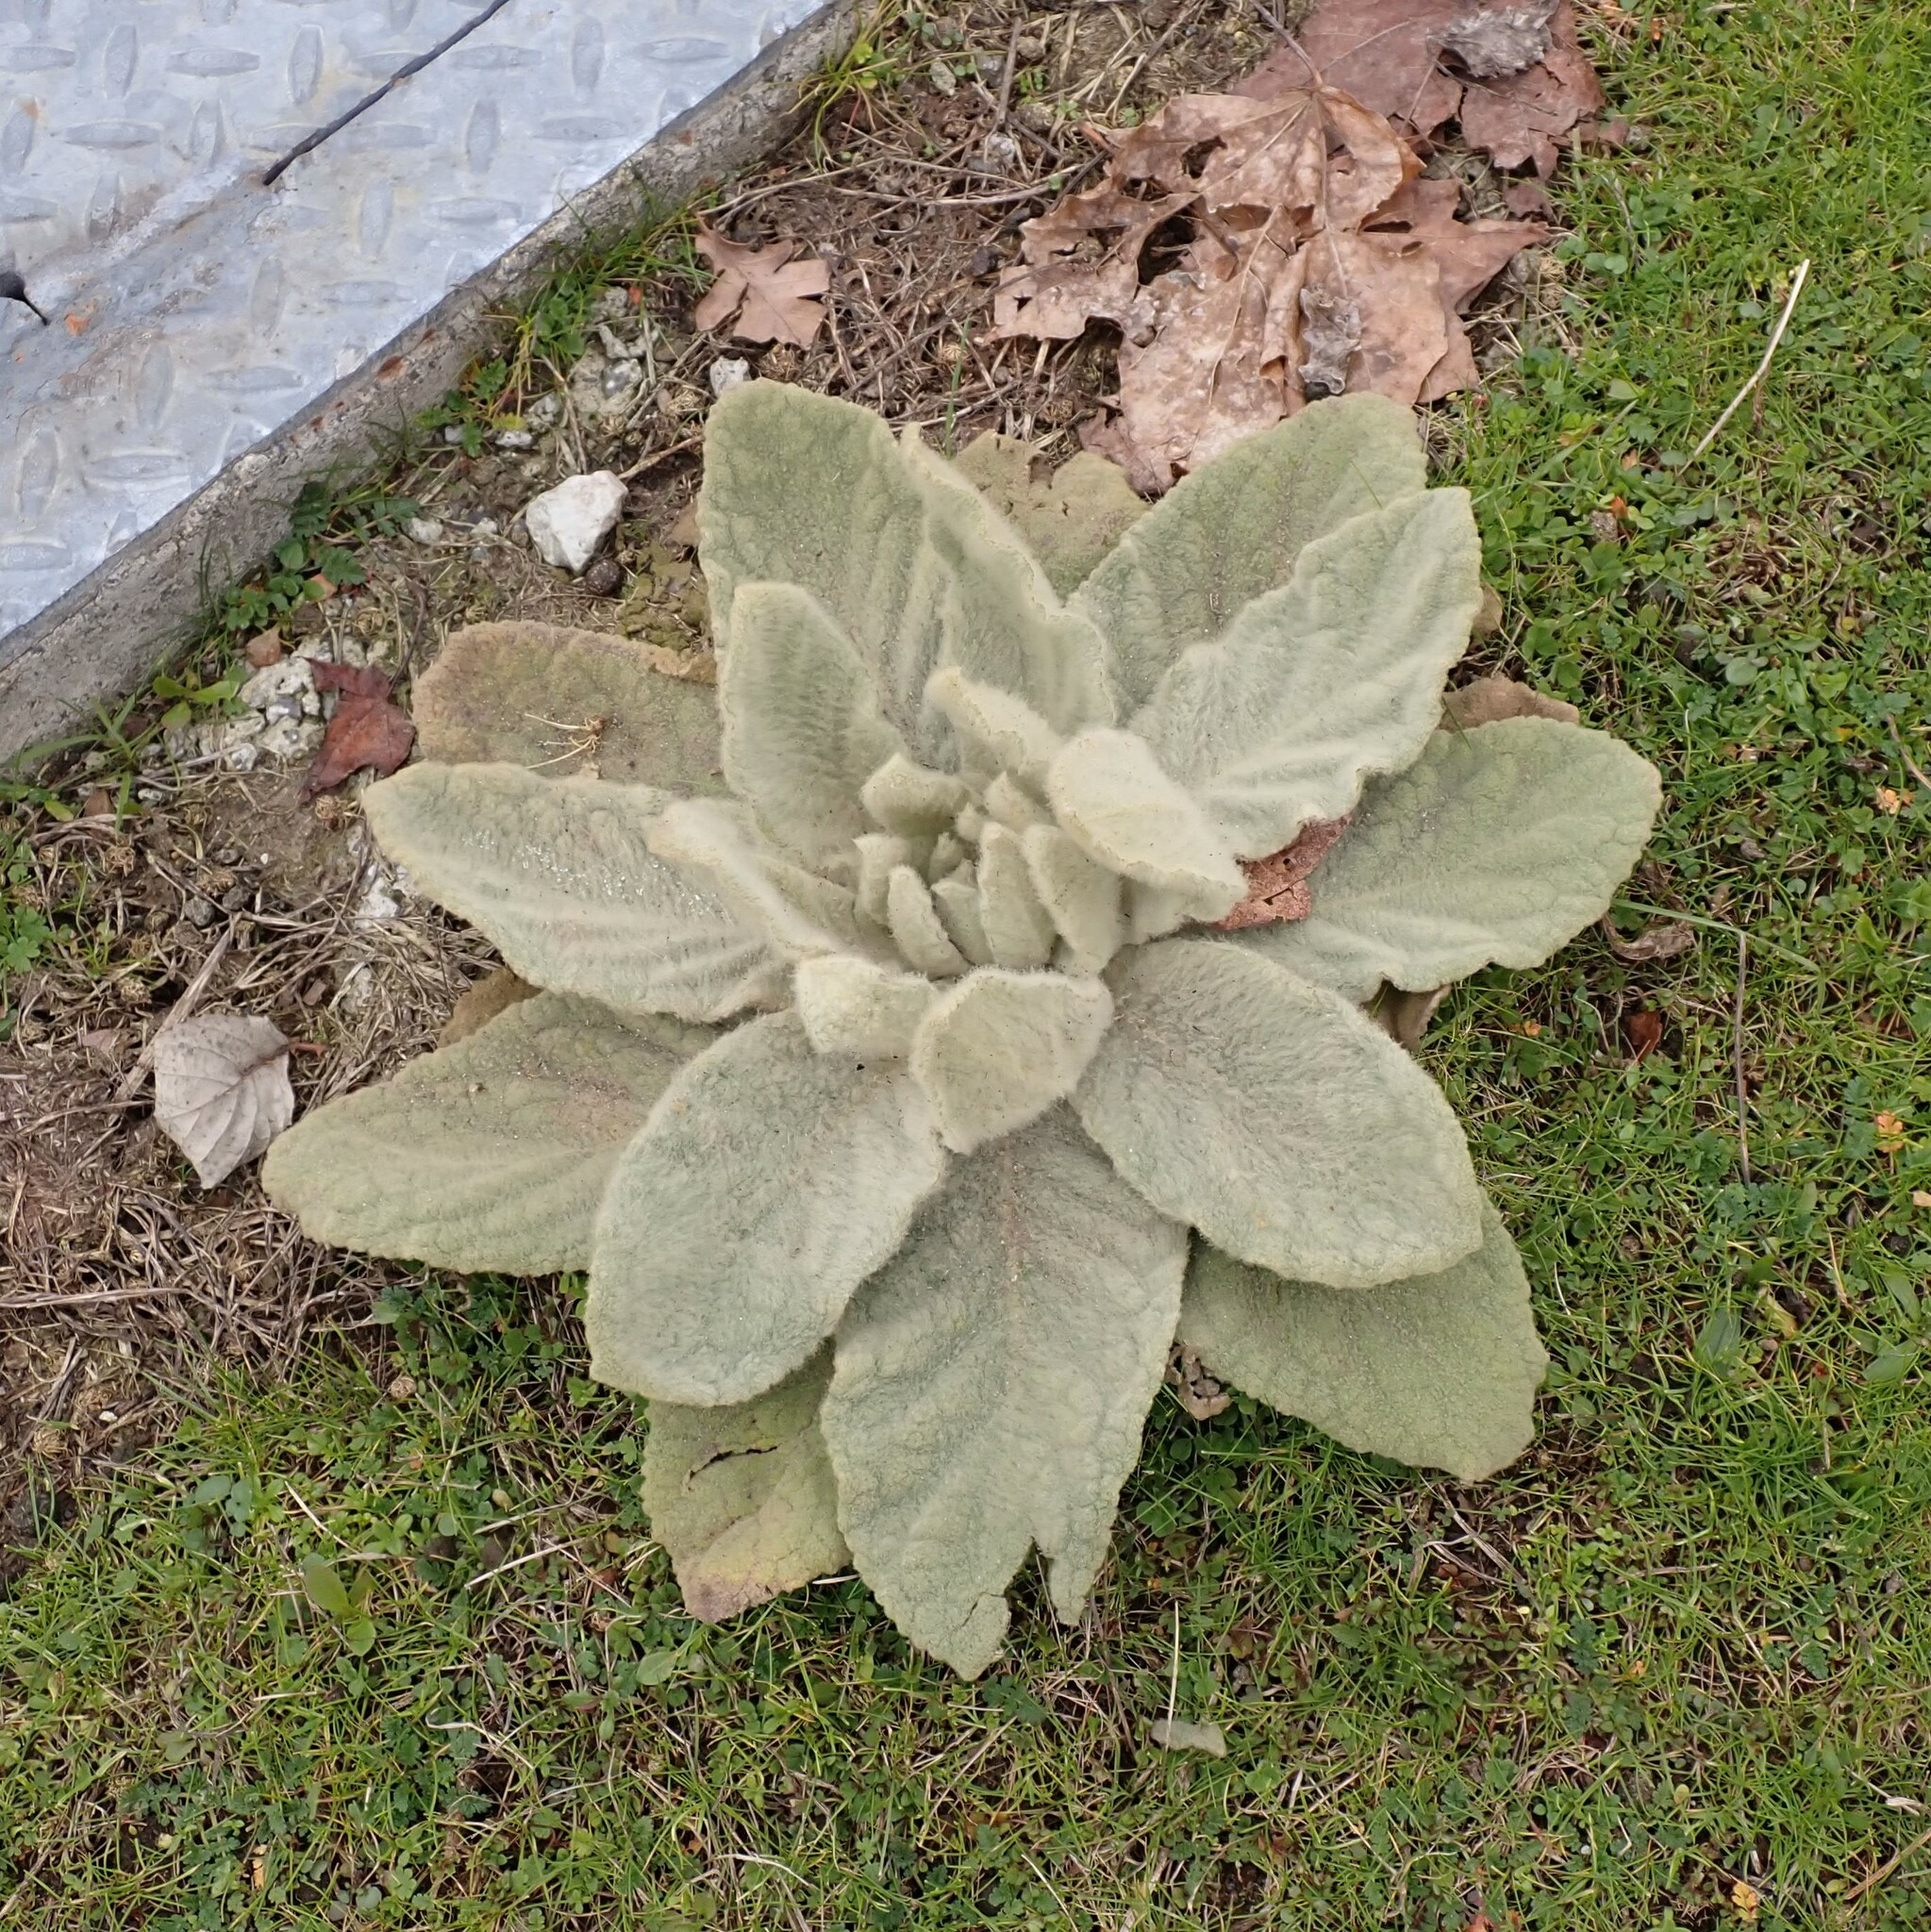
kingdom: Plantae
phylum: Tracheophyta
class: Magnoliopsida
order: Lamiales
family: Scrophulariaceae
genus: Verbascum
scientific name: Verbascum thapsus
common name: Common mullein
